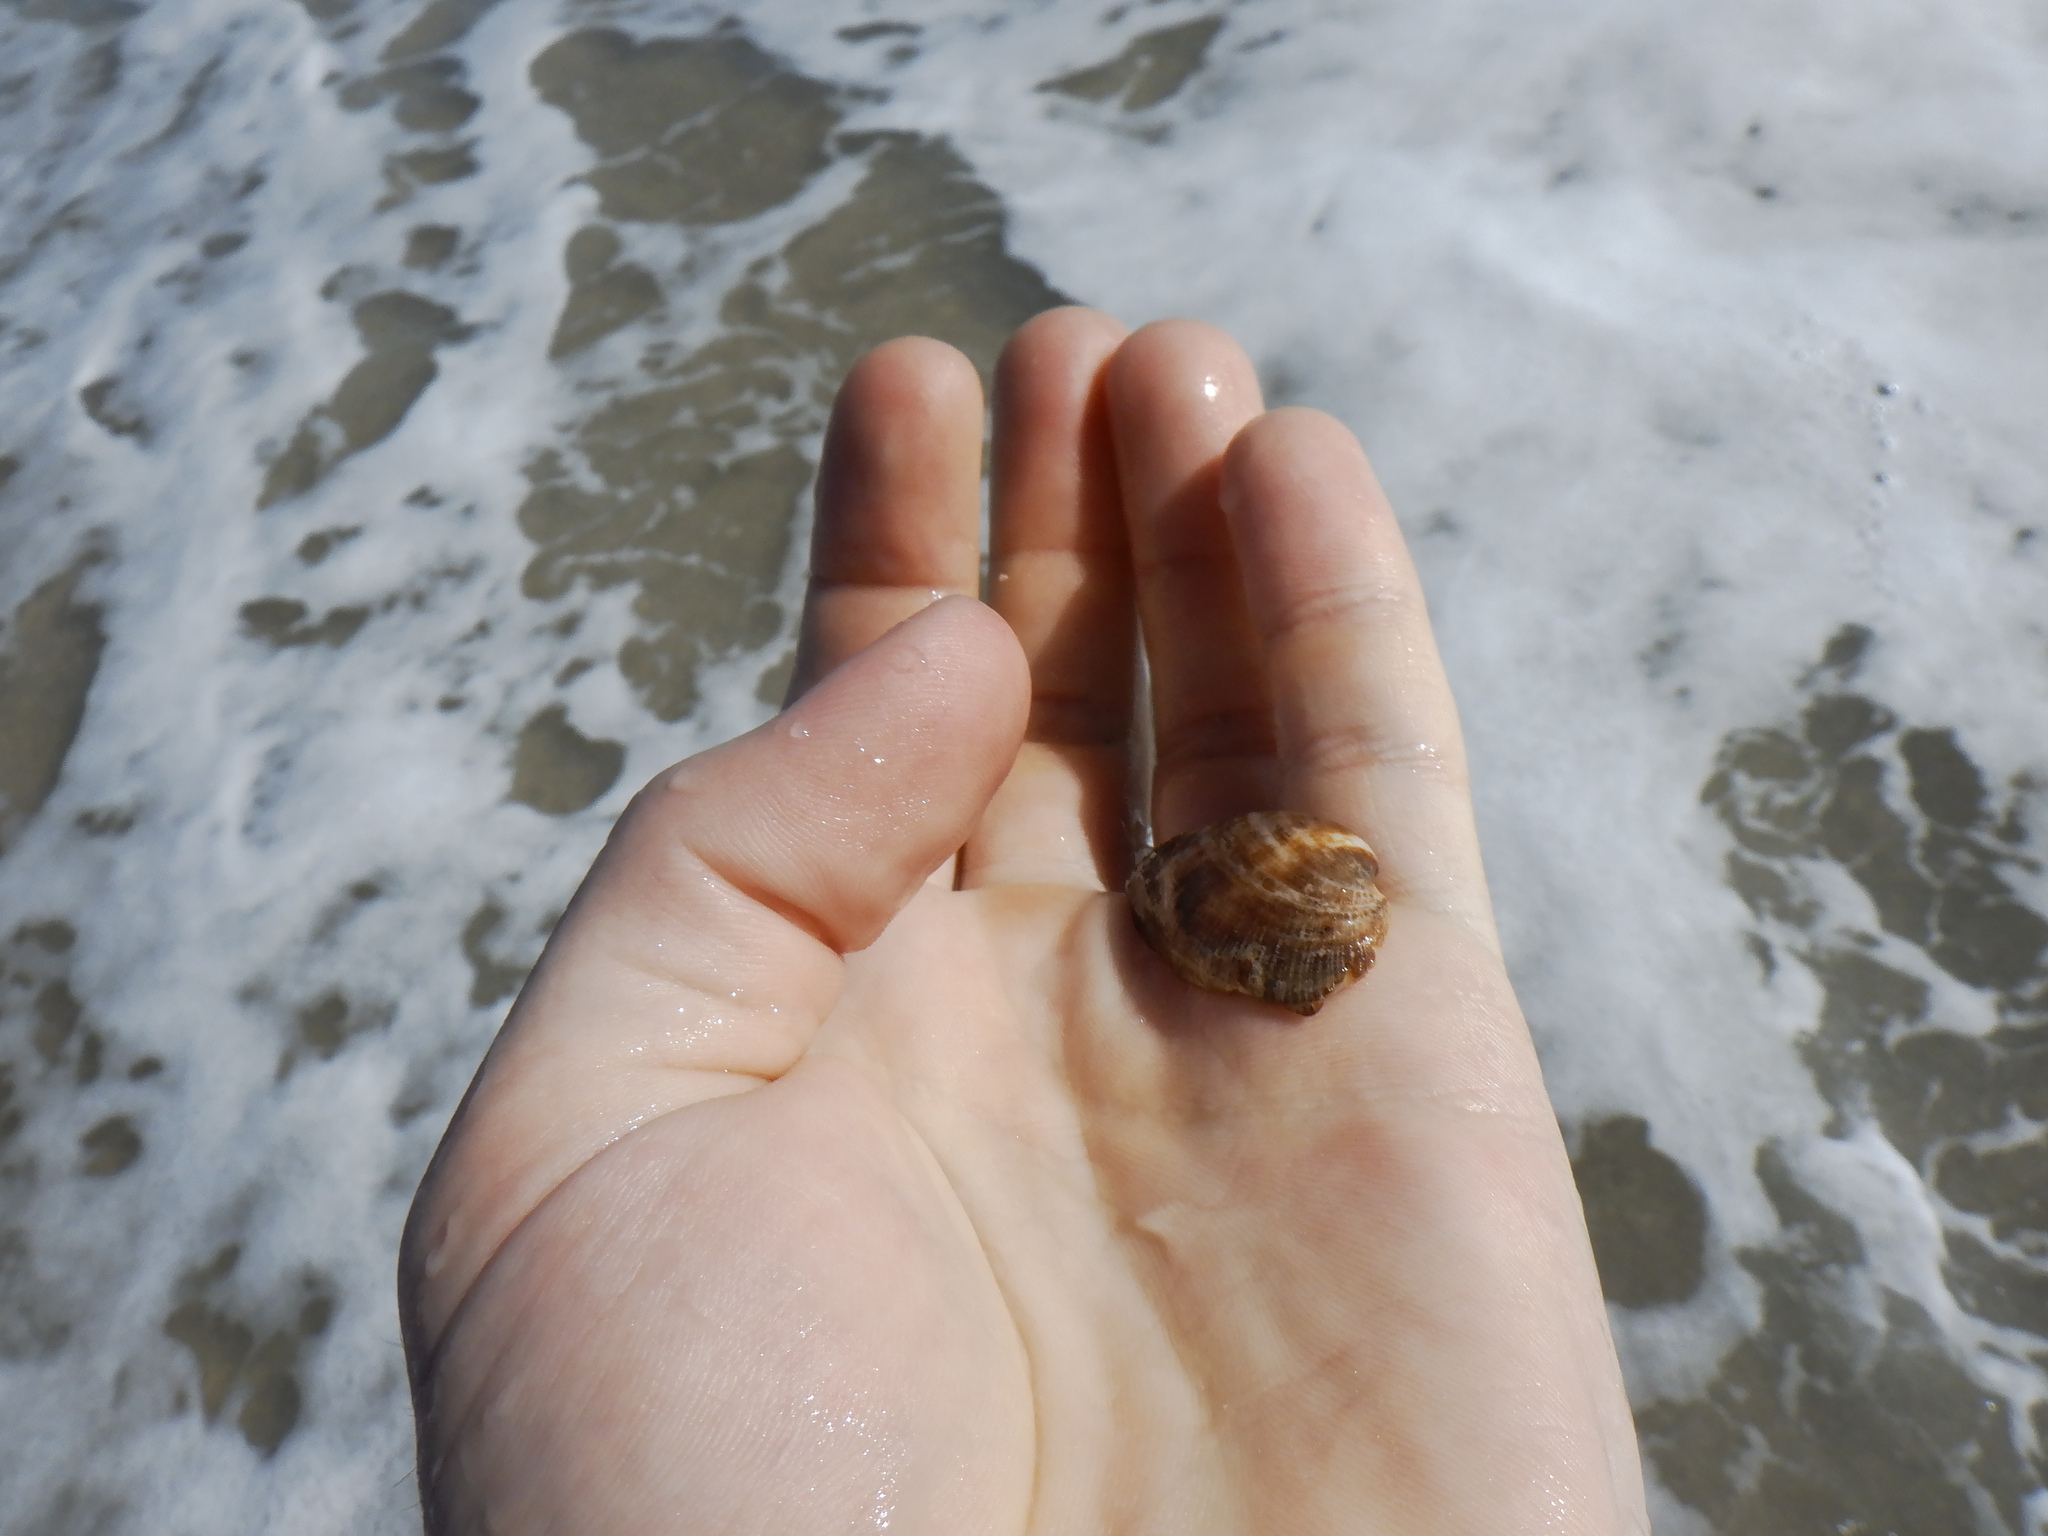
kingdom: Animalia
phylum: Mollusca
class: Bivalvia
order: Arcida
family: Arcidae
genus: Barbatia
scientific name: Barbatia domingensis
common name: White miniature ark
